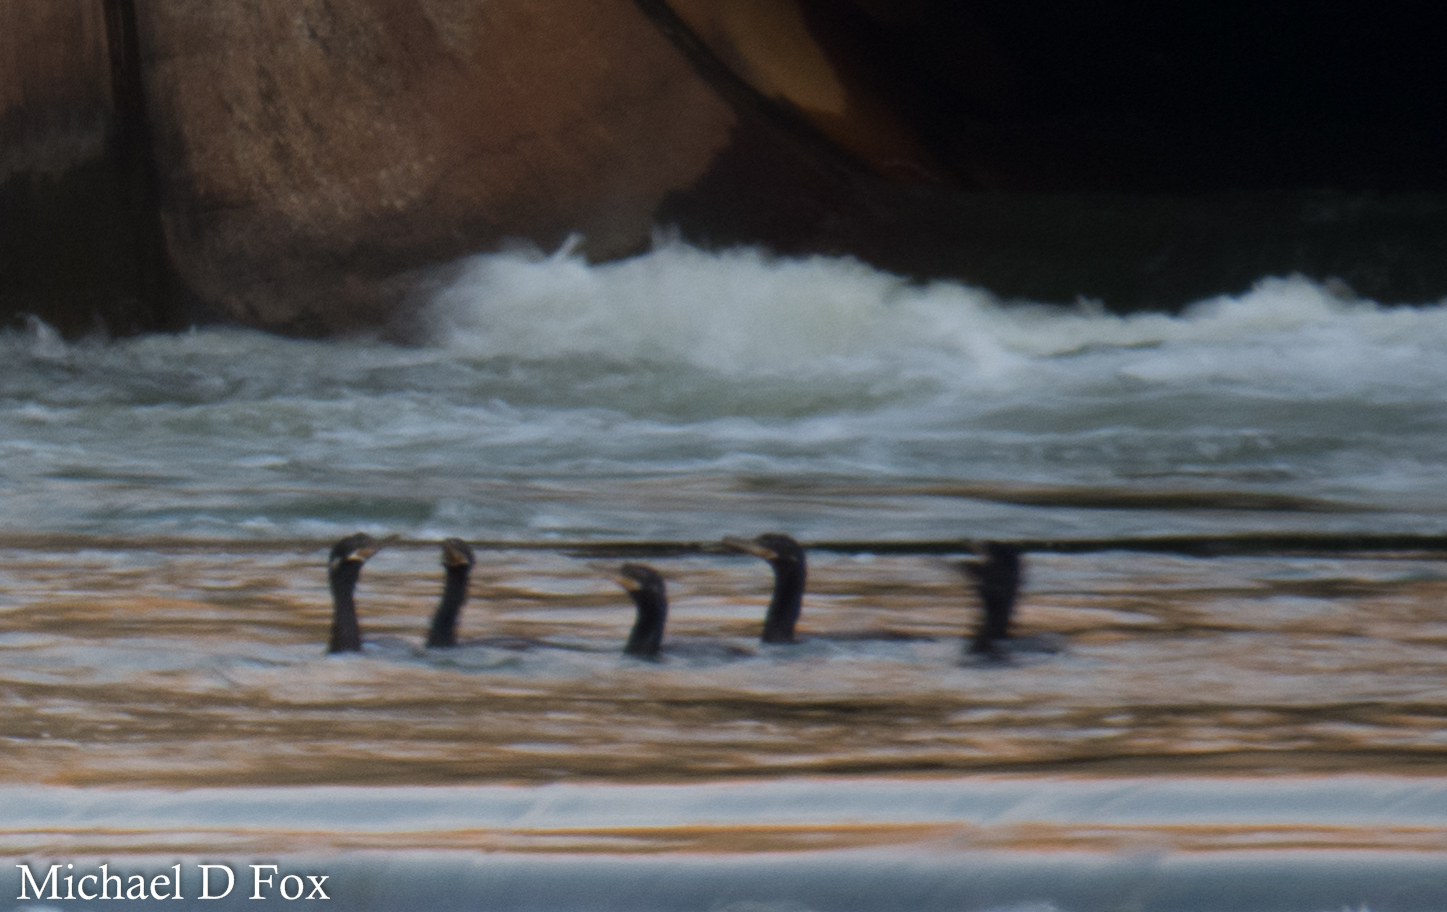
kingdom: Animalia
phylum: Chordata
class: Aves
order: Suliformes
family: Phalacrocoracidae
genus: Phalacrocorax
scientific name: Phalacrocorax brasilianus
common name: Neotropic cormorant
